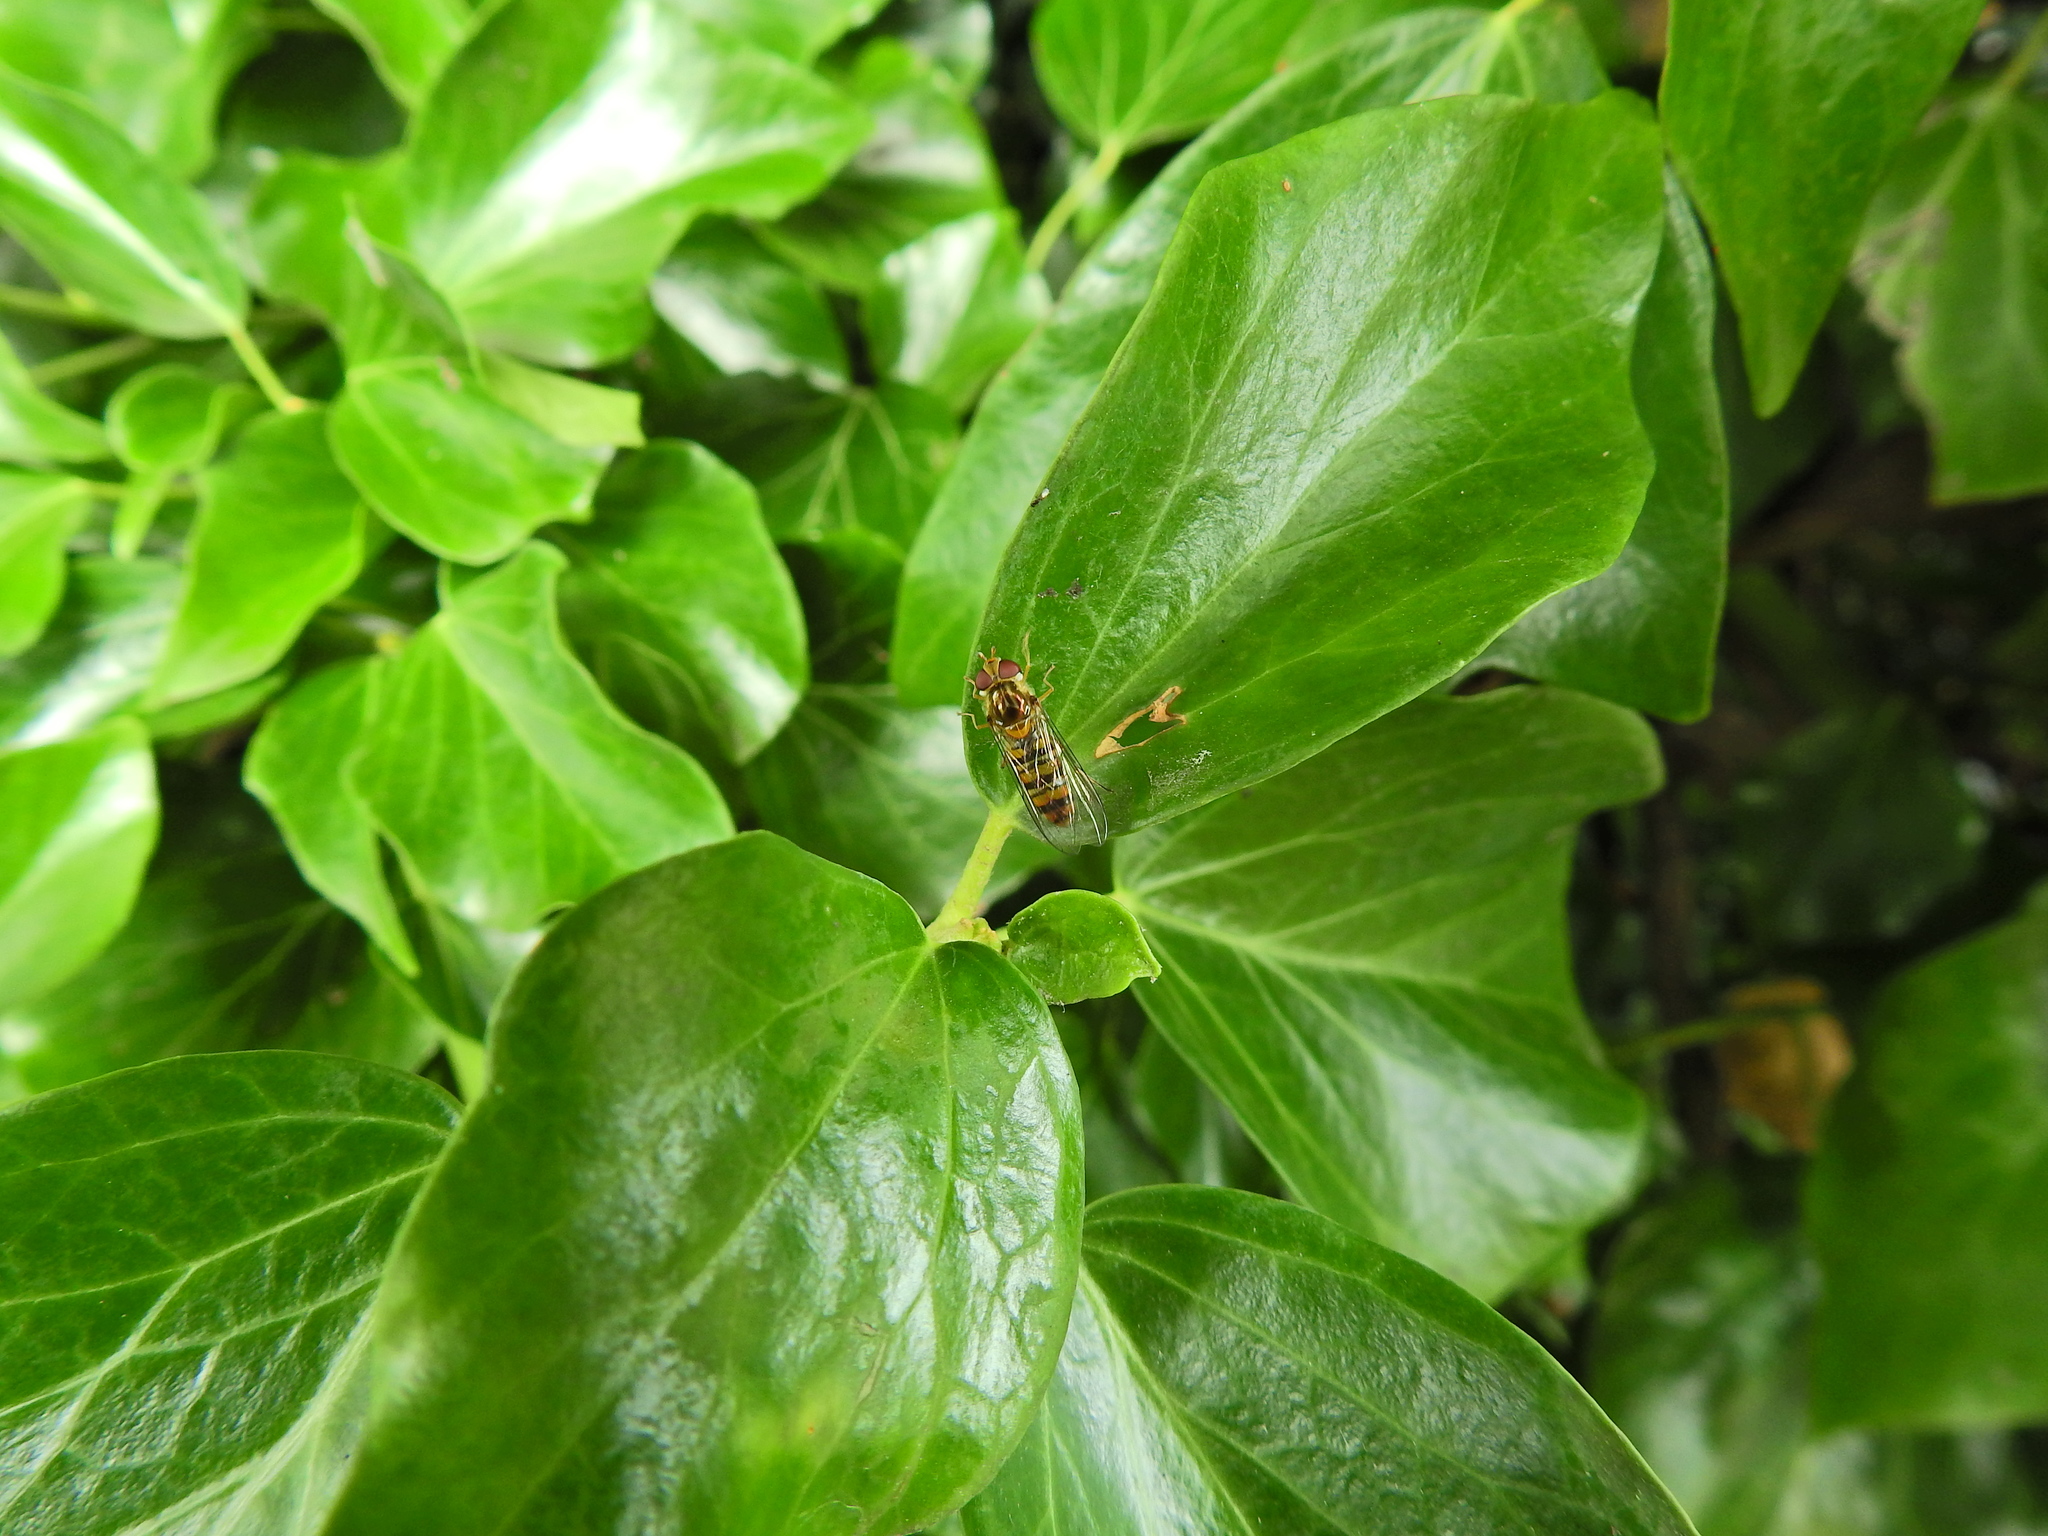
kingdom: Animalia
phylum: Arthropoda
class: Insecta
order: Diptera
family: Syrphidae
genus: Episyrphus
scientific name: Episyrphus balteatus
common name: Marmalade hoverfly
